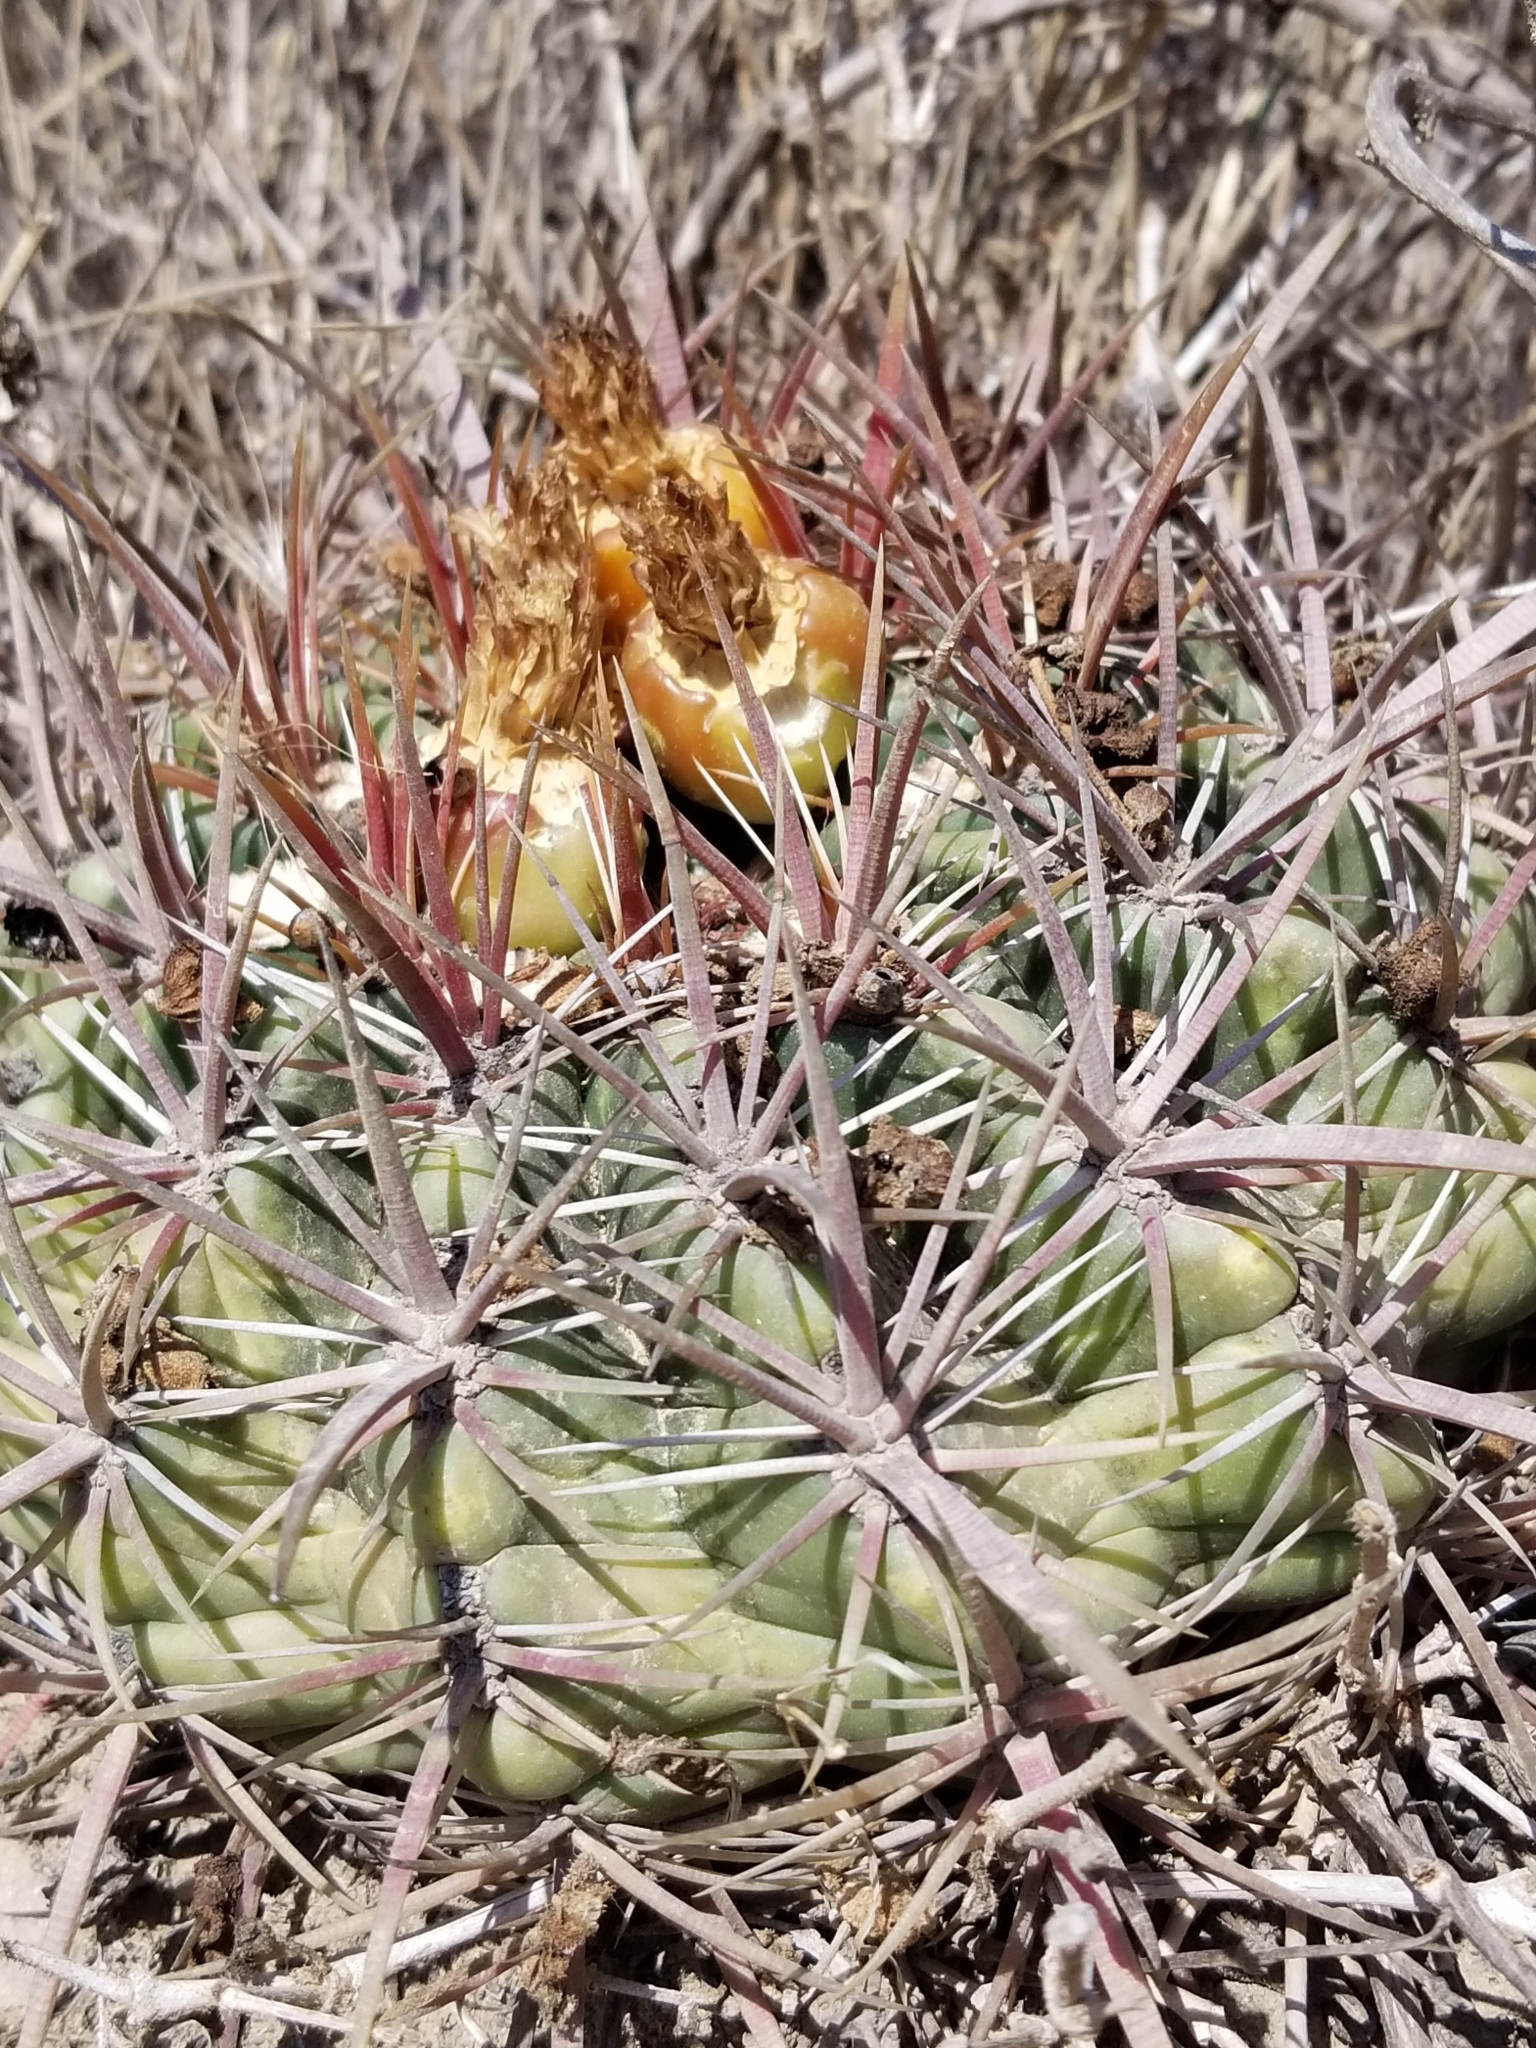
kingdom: Plantae
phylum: Tracheophyta
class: Magnoliopsida
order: Caryophyllales
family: Cactaceae
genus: Ferocactus
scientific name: Ferocactus viridescens
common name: San diego barrel cactus
